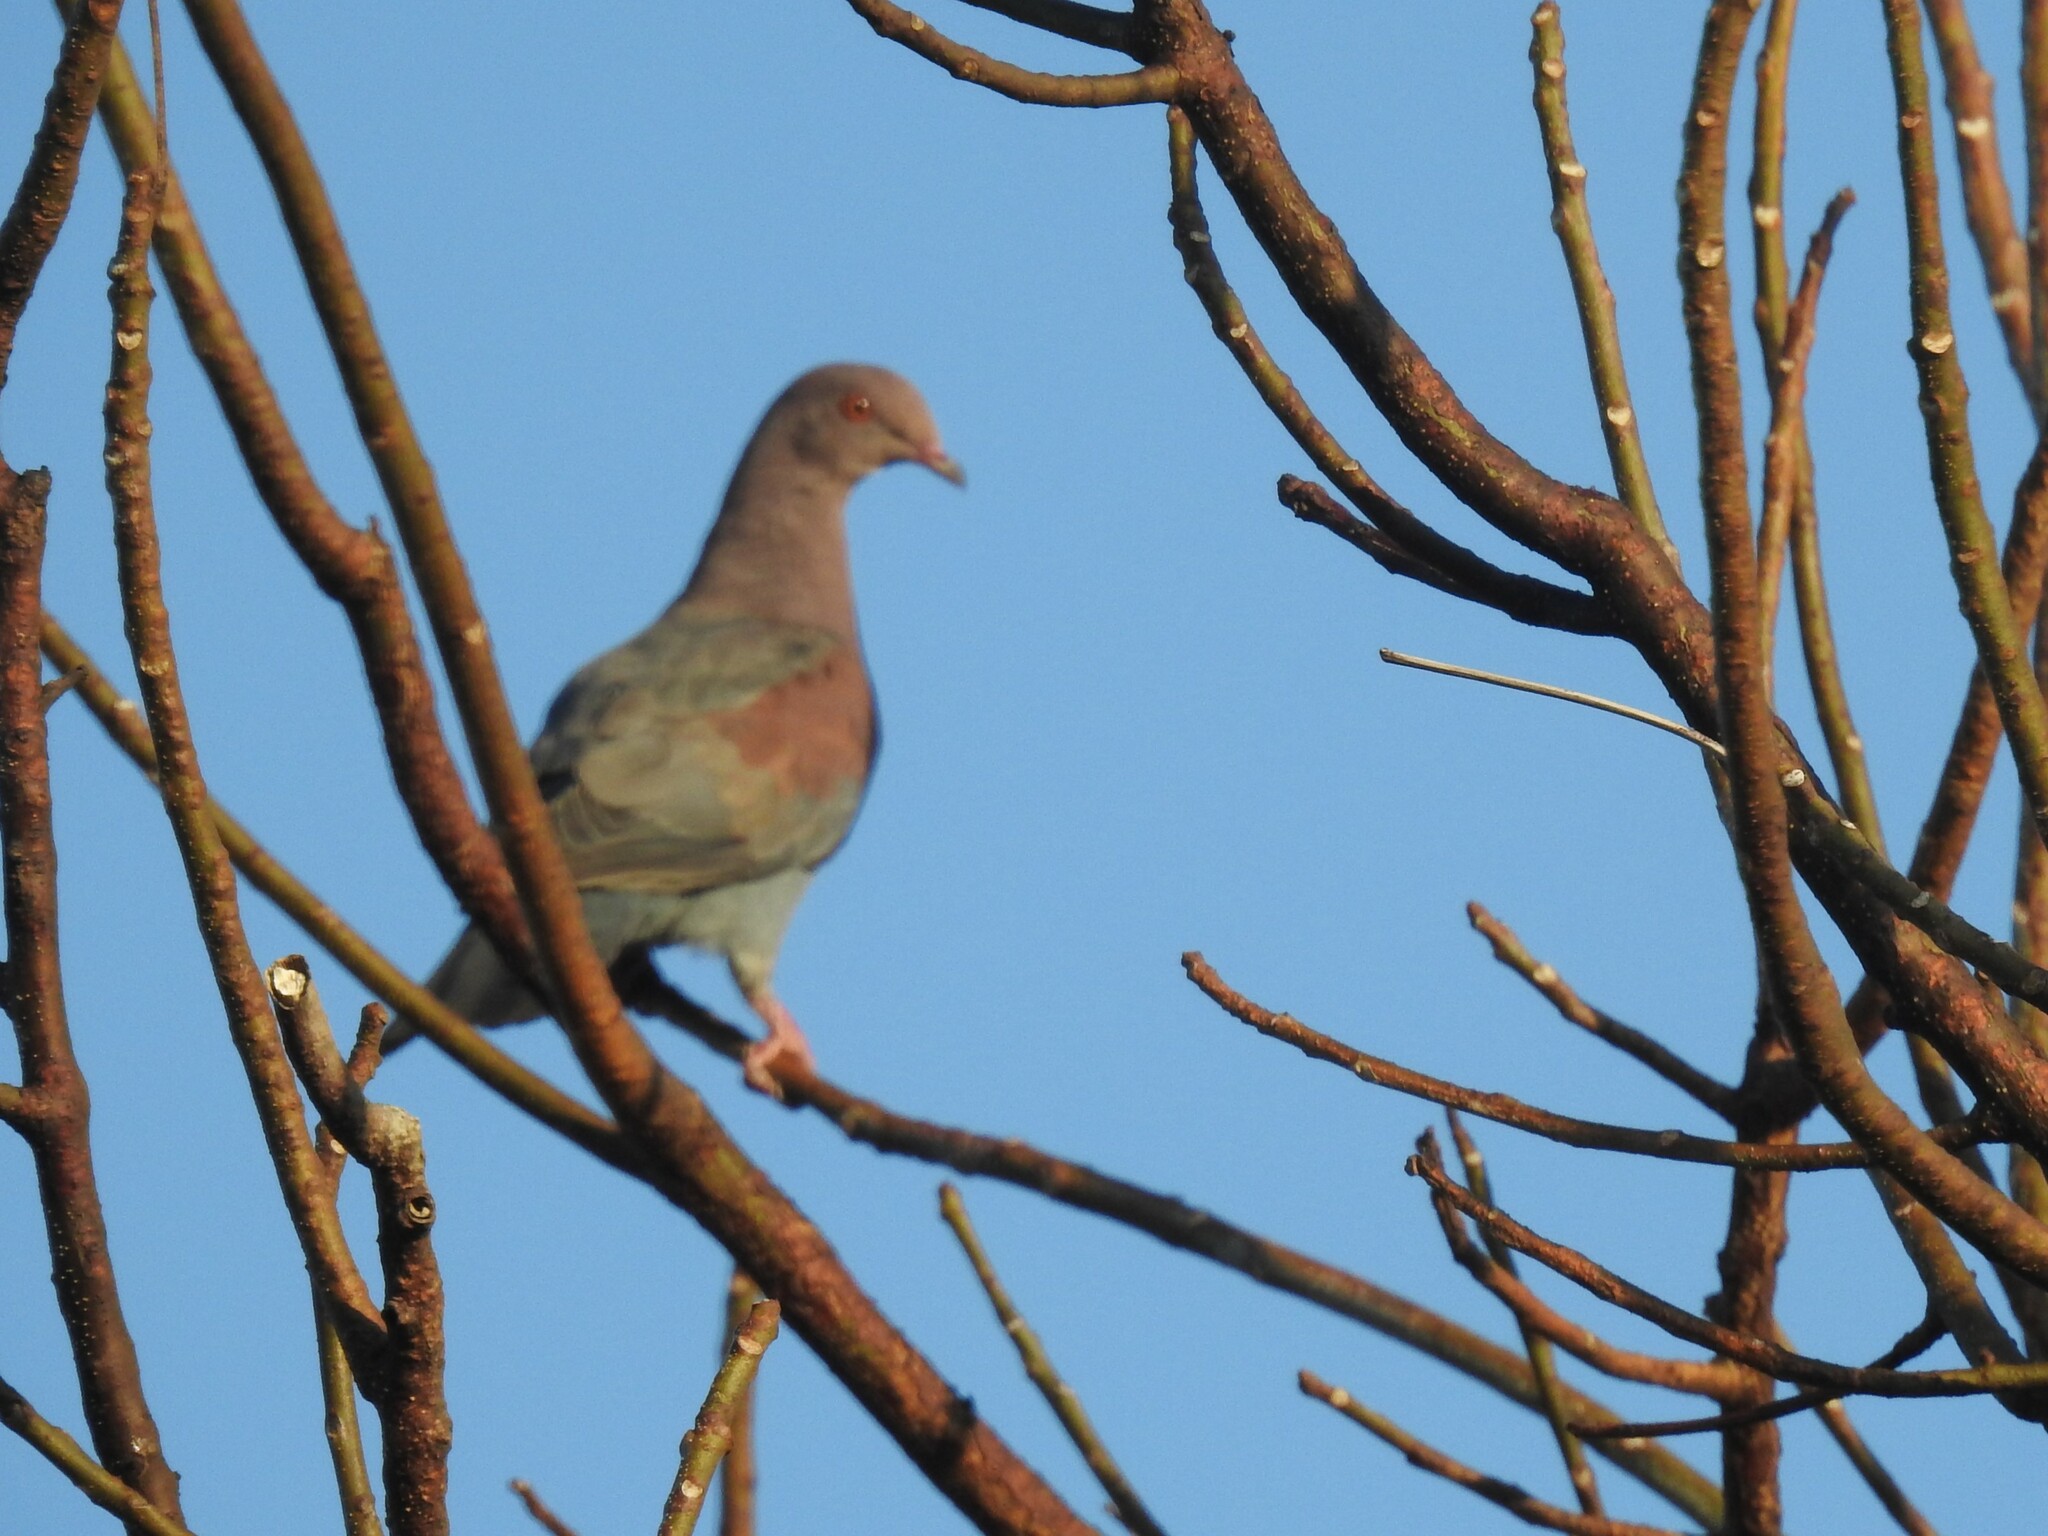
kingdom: Animalia
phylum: Chordata
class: Aves
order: Columbiformes
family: Columbidae
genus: Patagioenas
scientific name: Patagioenas flavirostris
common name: Red-billed pigeon
